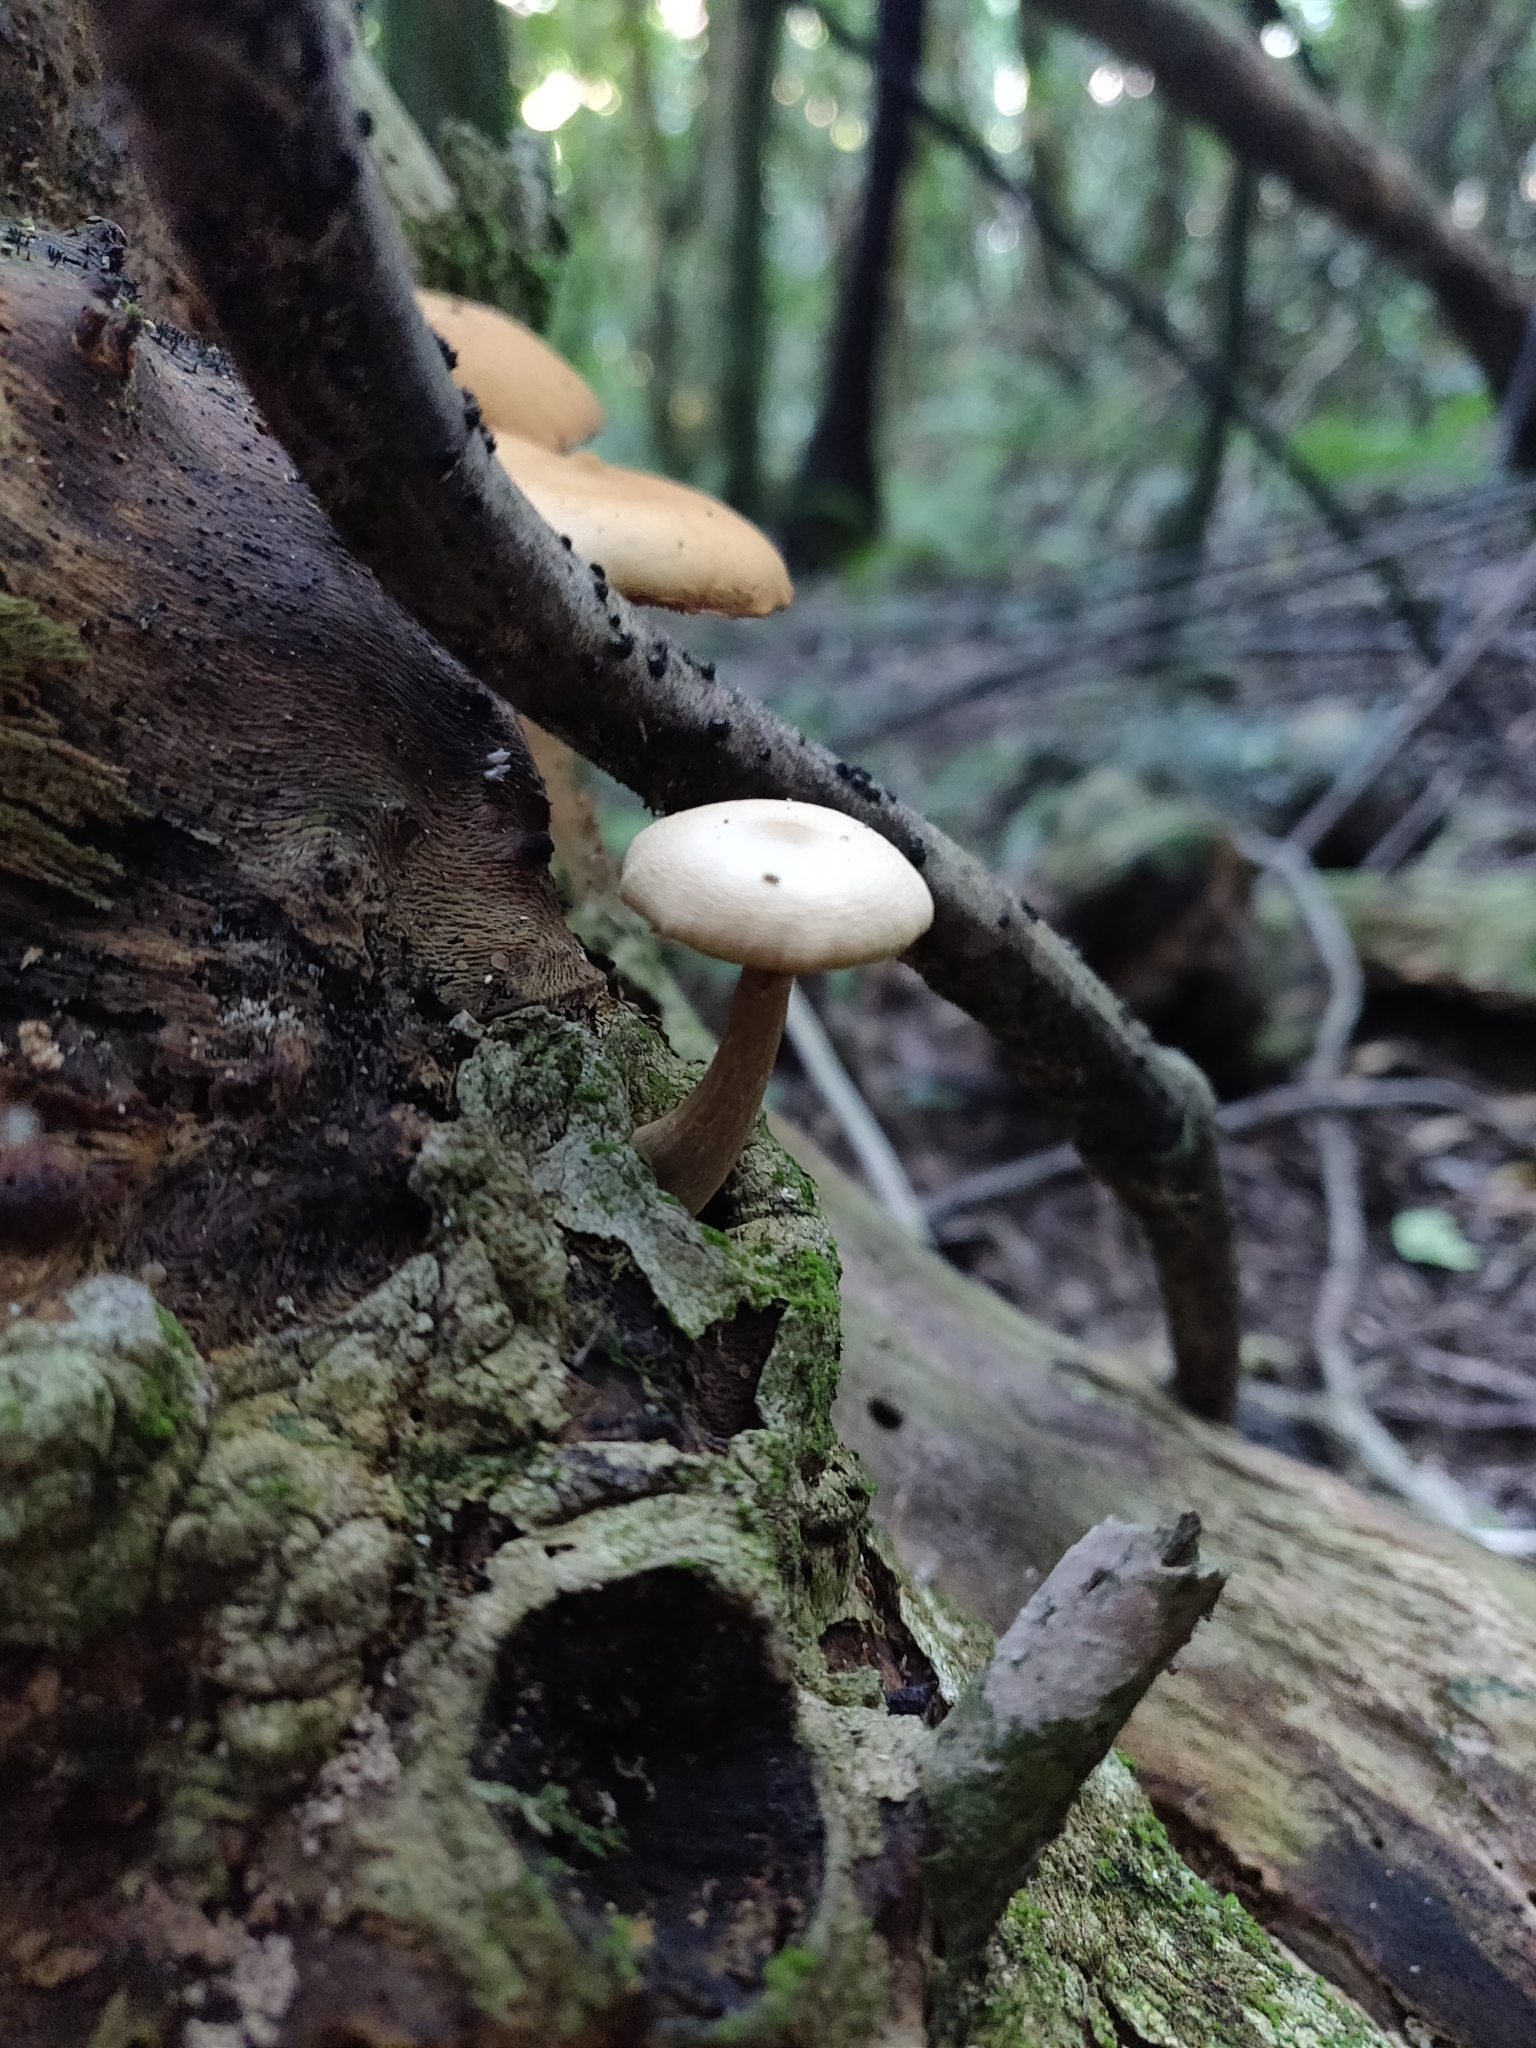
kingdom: Fungi
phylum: Basidiomycota
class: Agaricomycetes
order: Agaricales
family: Hymenogastraceae
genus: Galerina
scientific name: Galerina patagonica
